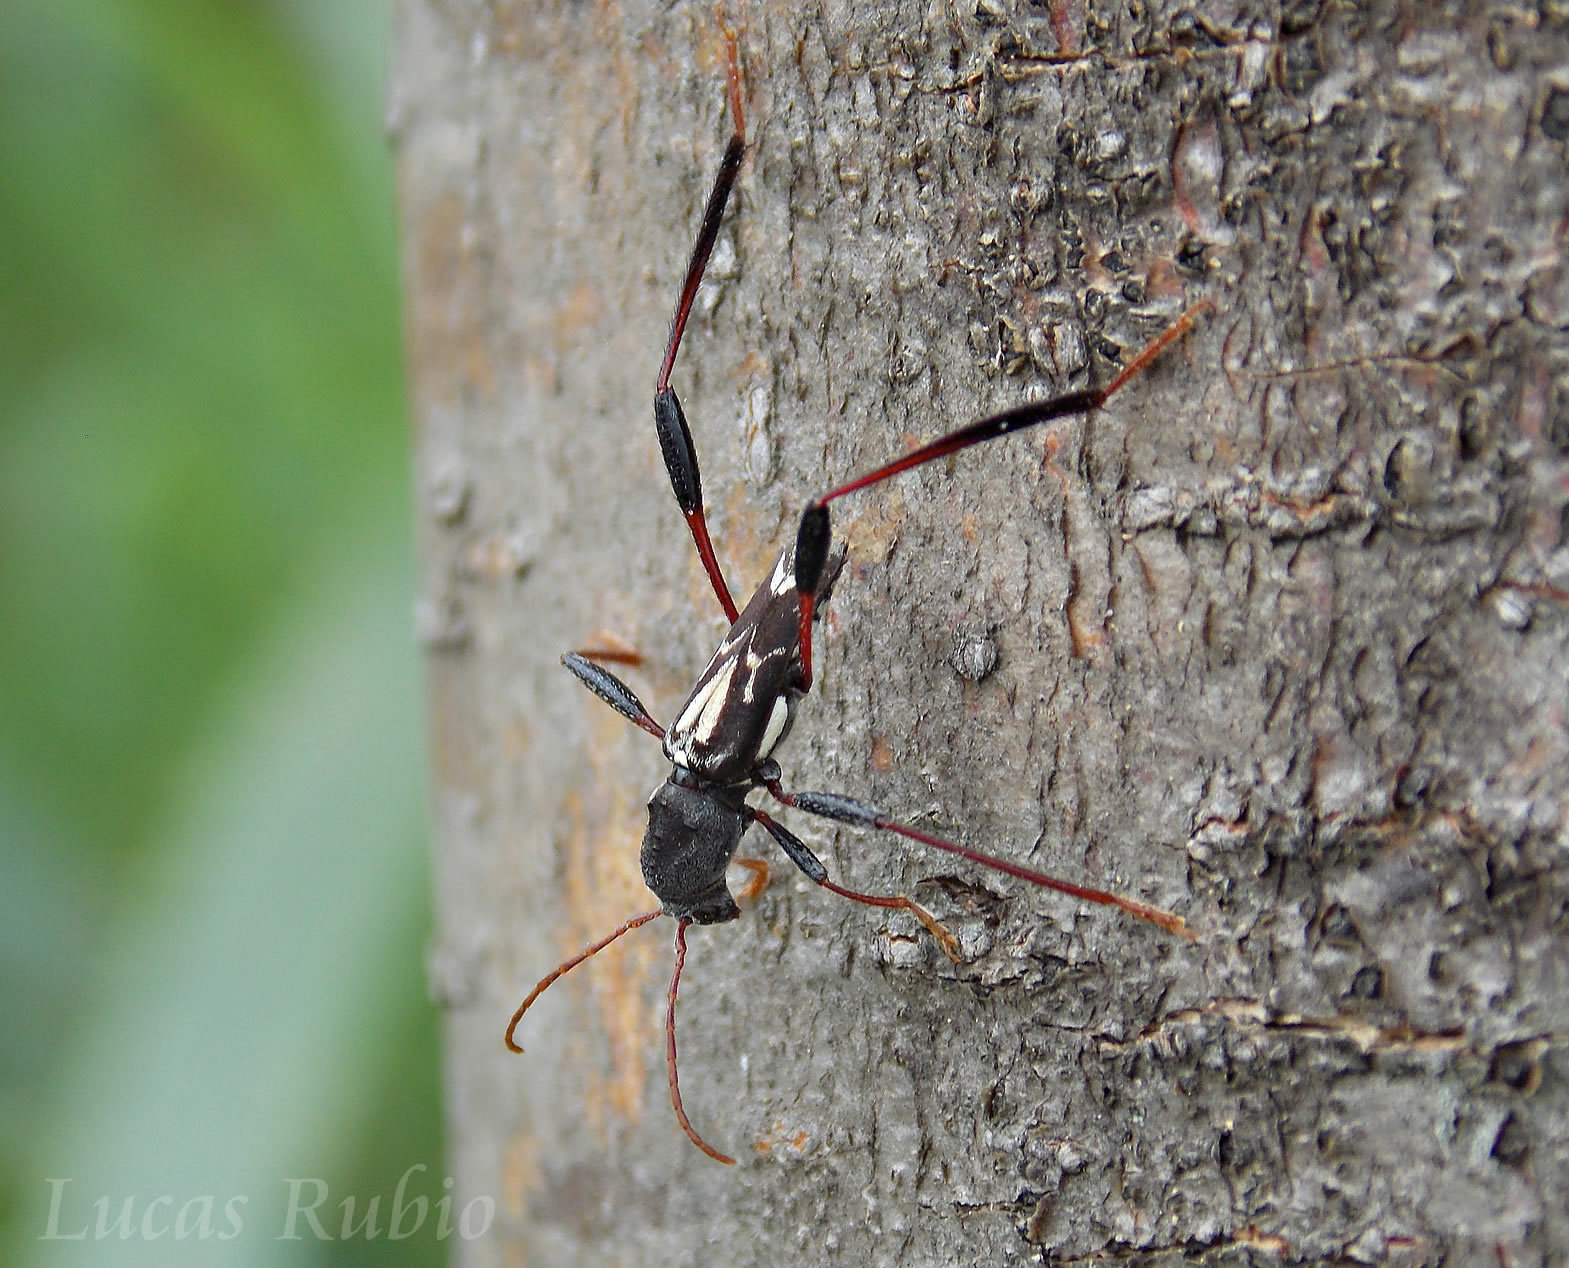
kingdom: Animalia
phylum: Arthropoda
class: Insecta
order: Coleoptera
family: Cerambycidae
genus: Neoclytus
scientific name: Neoclytus ypsilon
